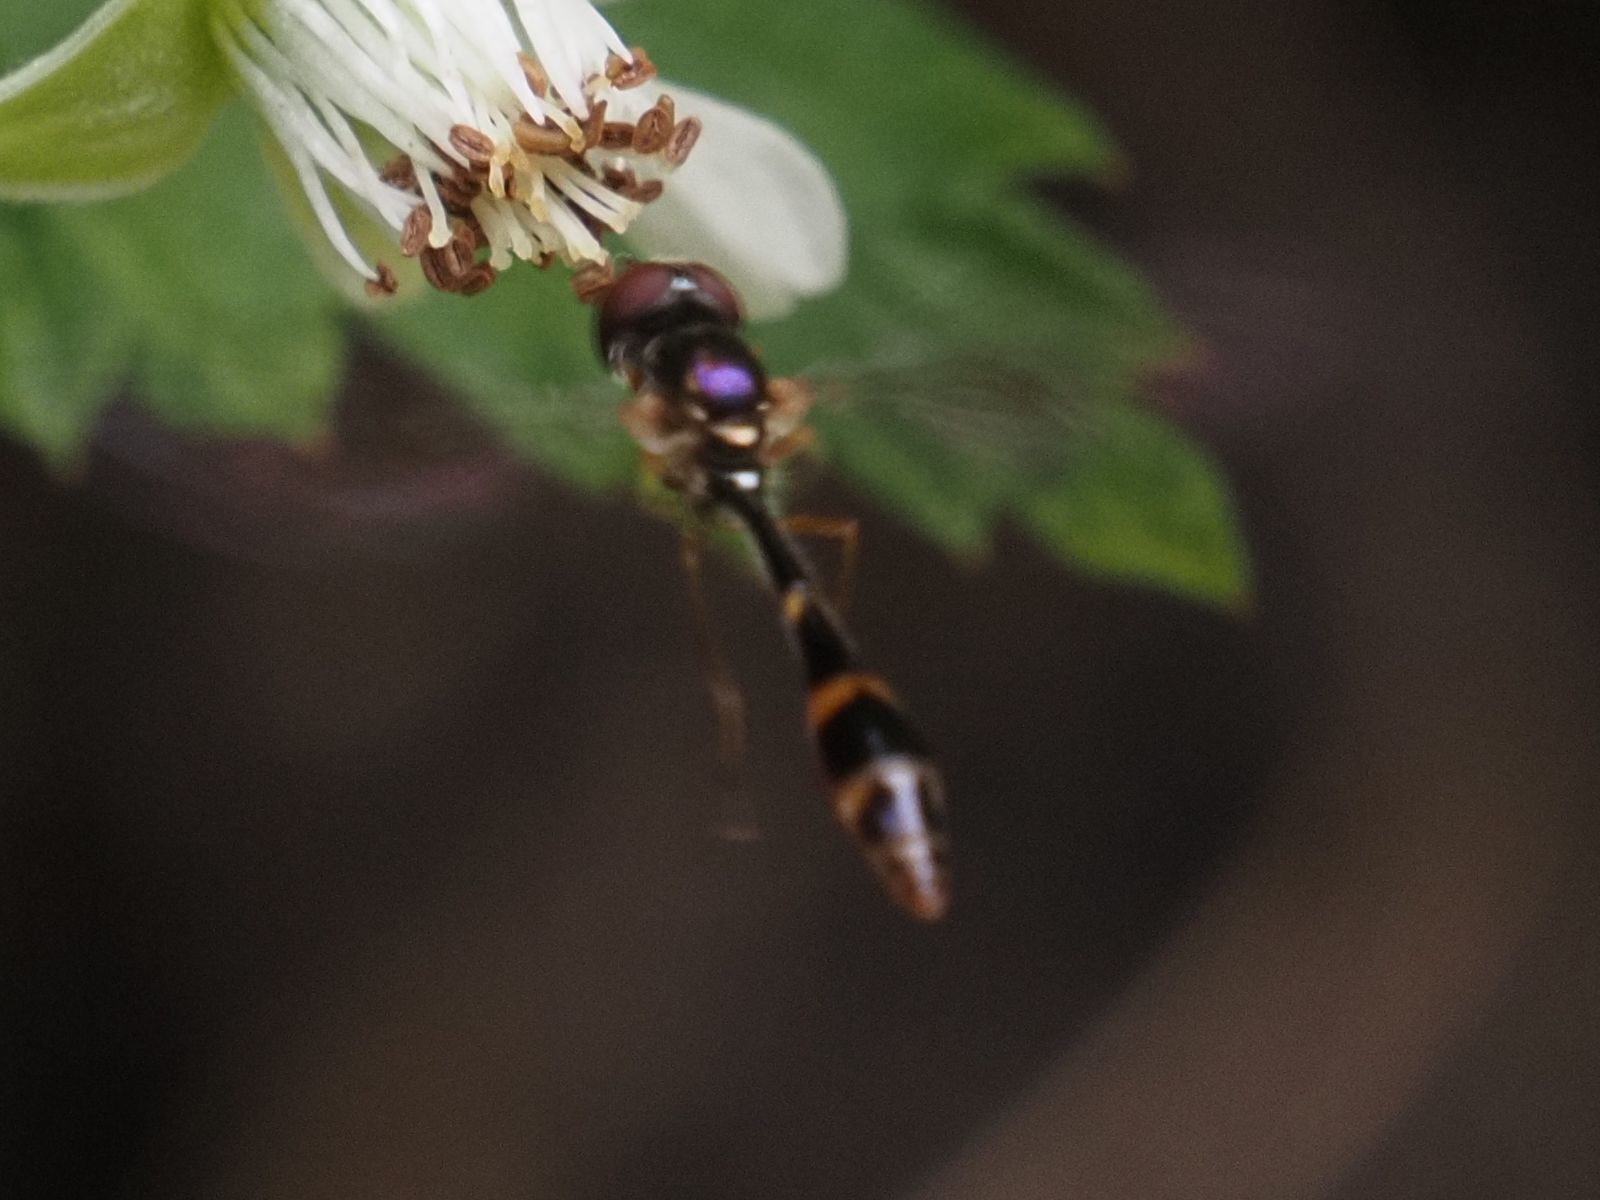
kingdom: Animalia
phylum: Arthropoda
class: Insecta
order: Diptera
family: Syrphidae
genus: Baccha
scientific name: Baccha elongata
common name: Common dainty
